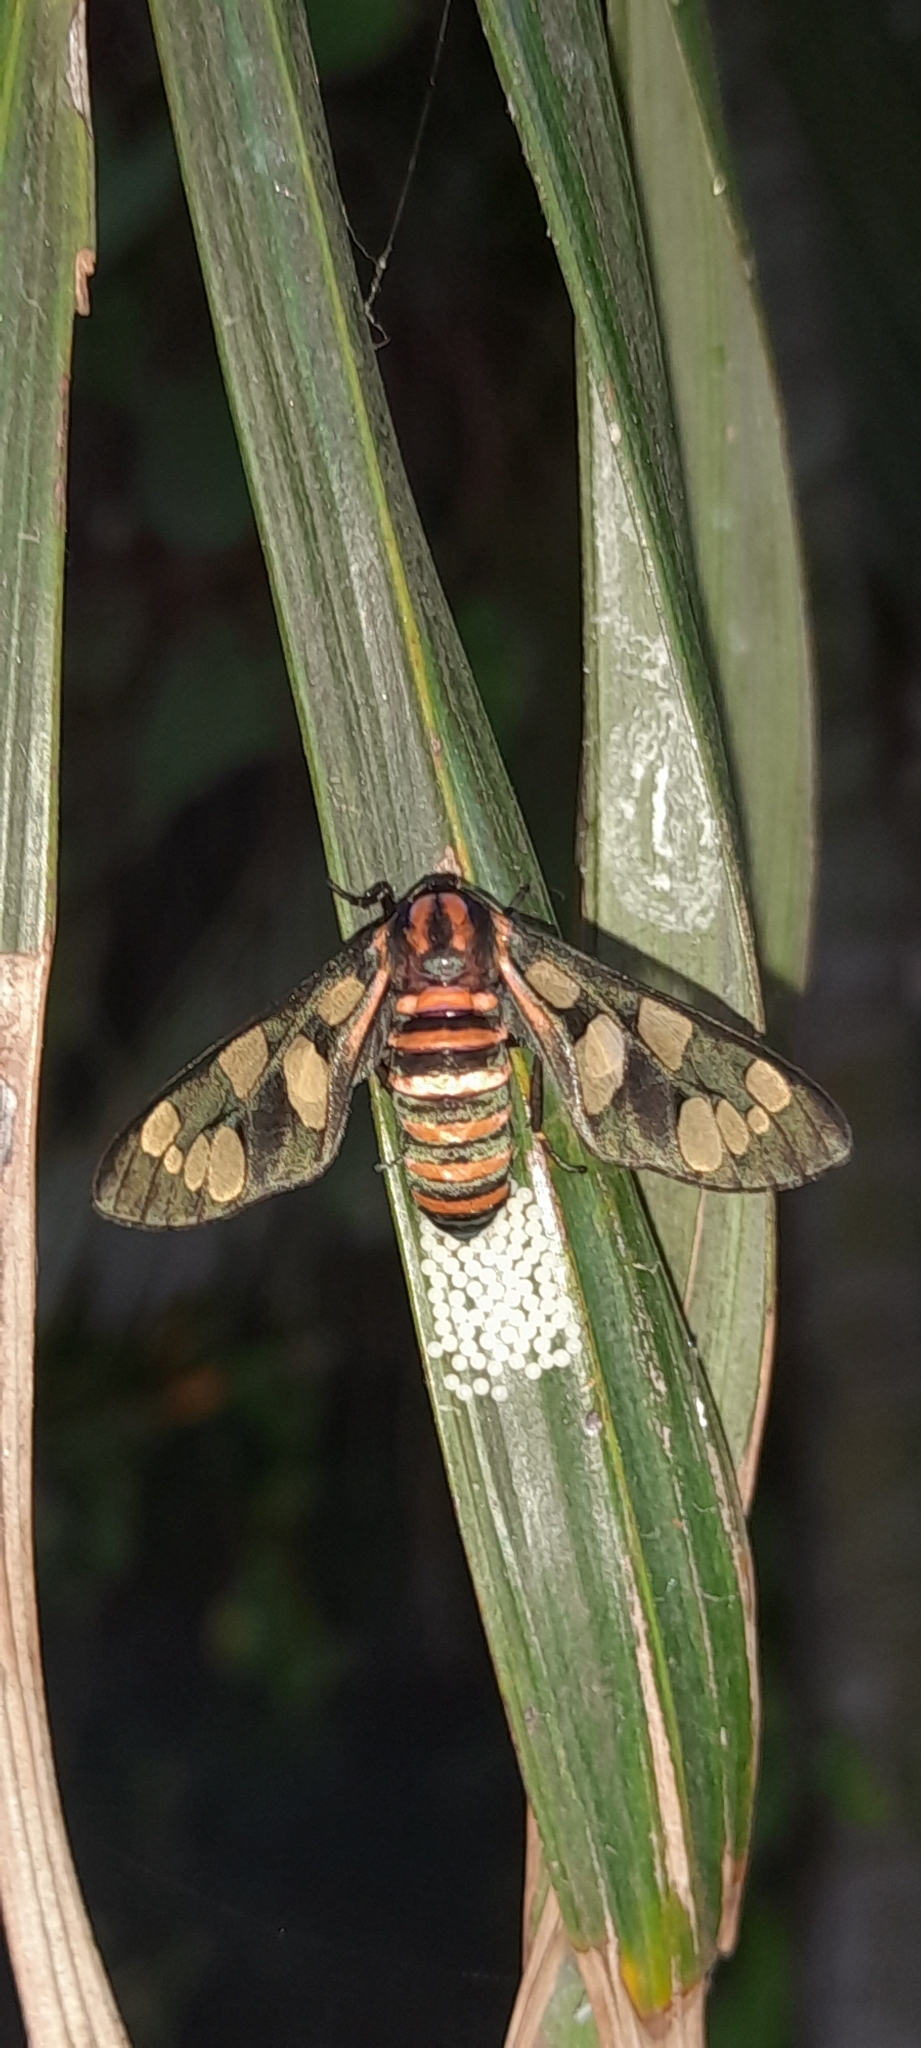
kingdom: Animalia
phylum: Arthropoda
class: Insecta
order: Lepidoptera
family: Erebidae
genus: Amata
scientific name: Amata passalis
